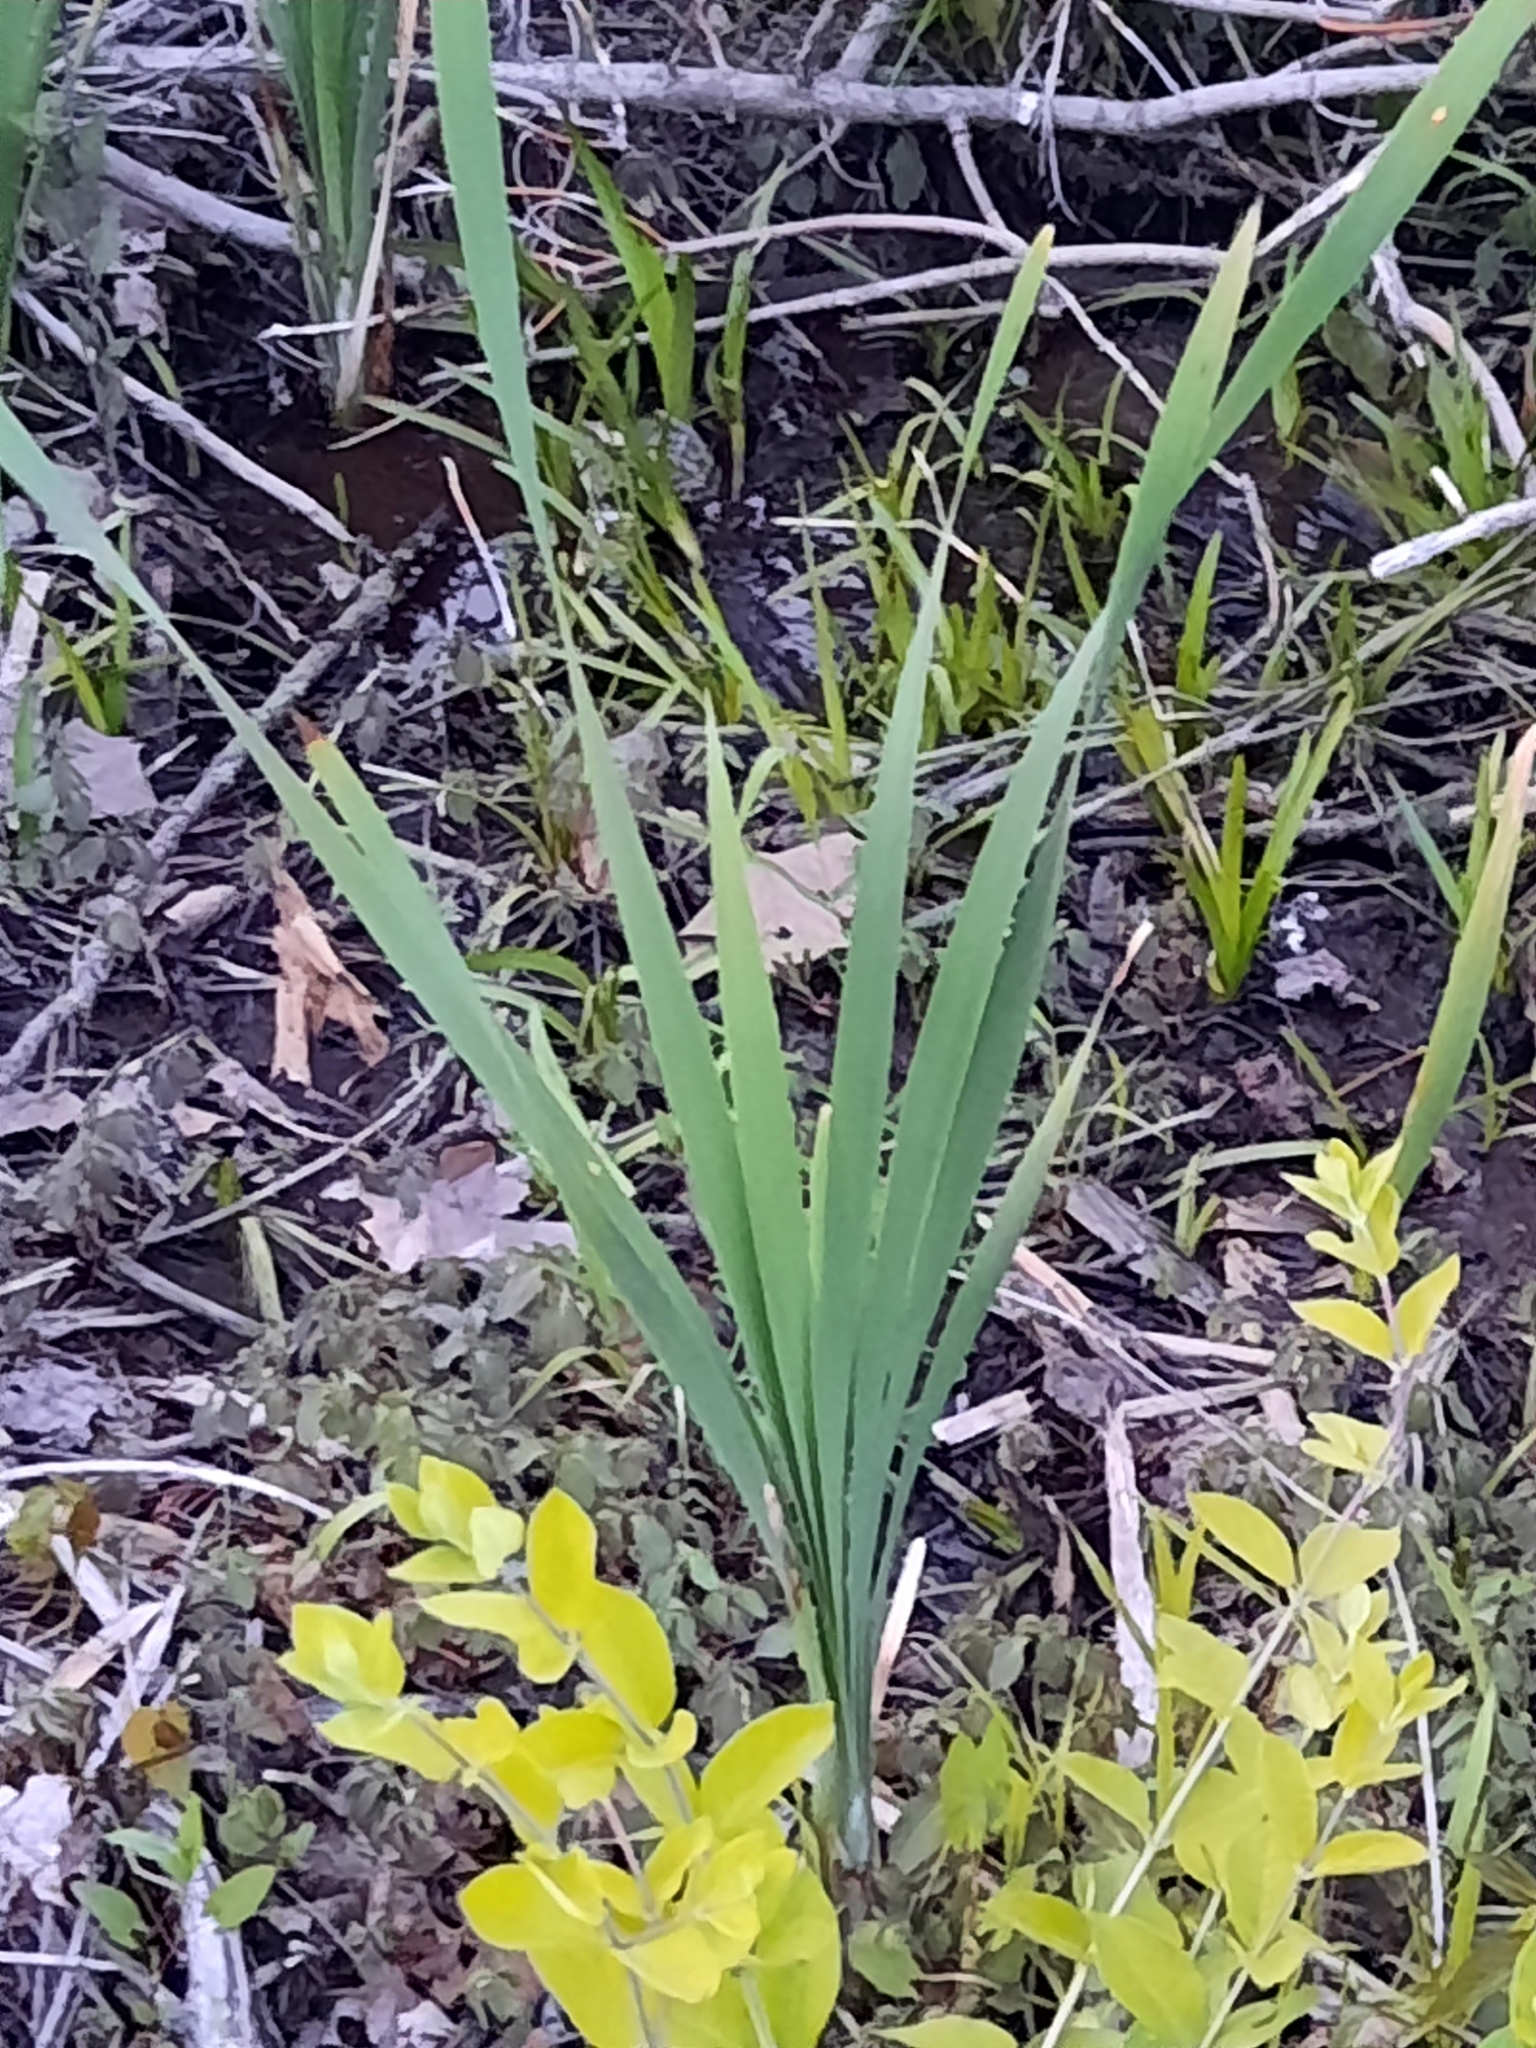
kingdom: Plantae
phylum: Tracheophyta
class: Liliopsida
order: Poales
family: Typhaceae
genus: Typha
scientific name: Typha
